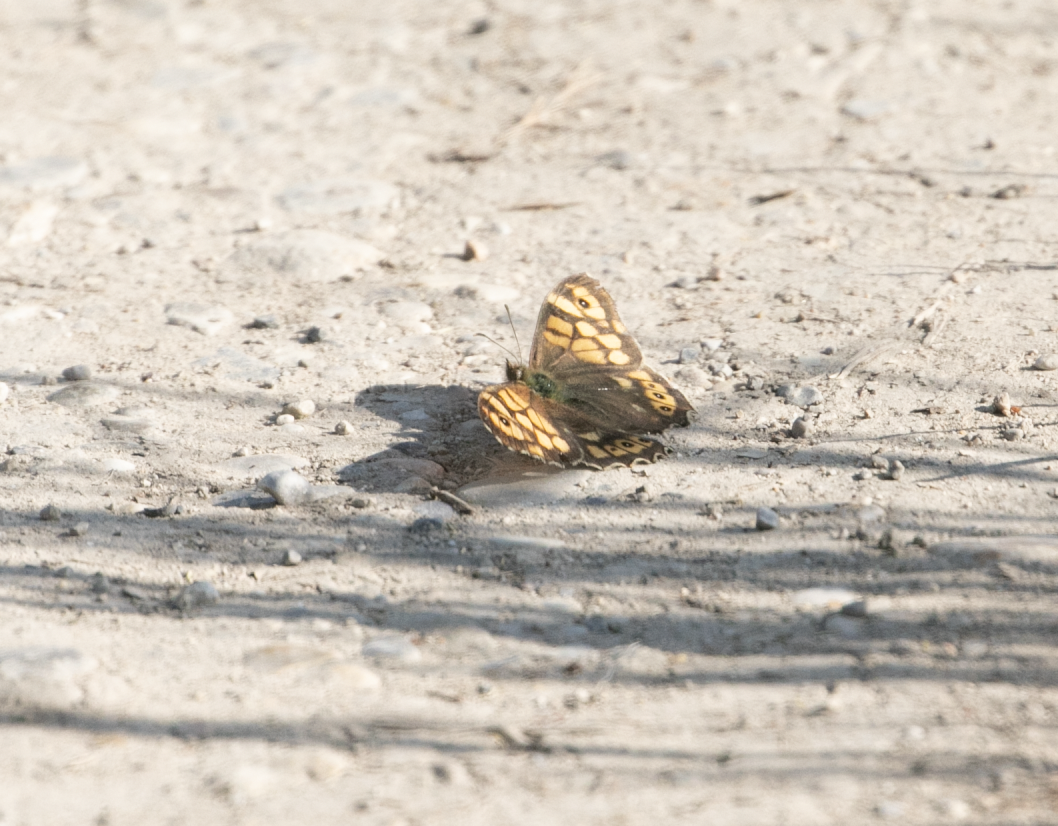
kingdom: Animalia
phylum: Arthropoda
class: Insecta
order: Lepidoptera
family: Nymphalidae
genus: Pararge
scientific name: Pararge aegeria
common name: Speckled wood
